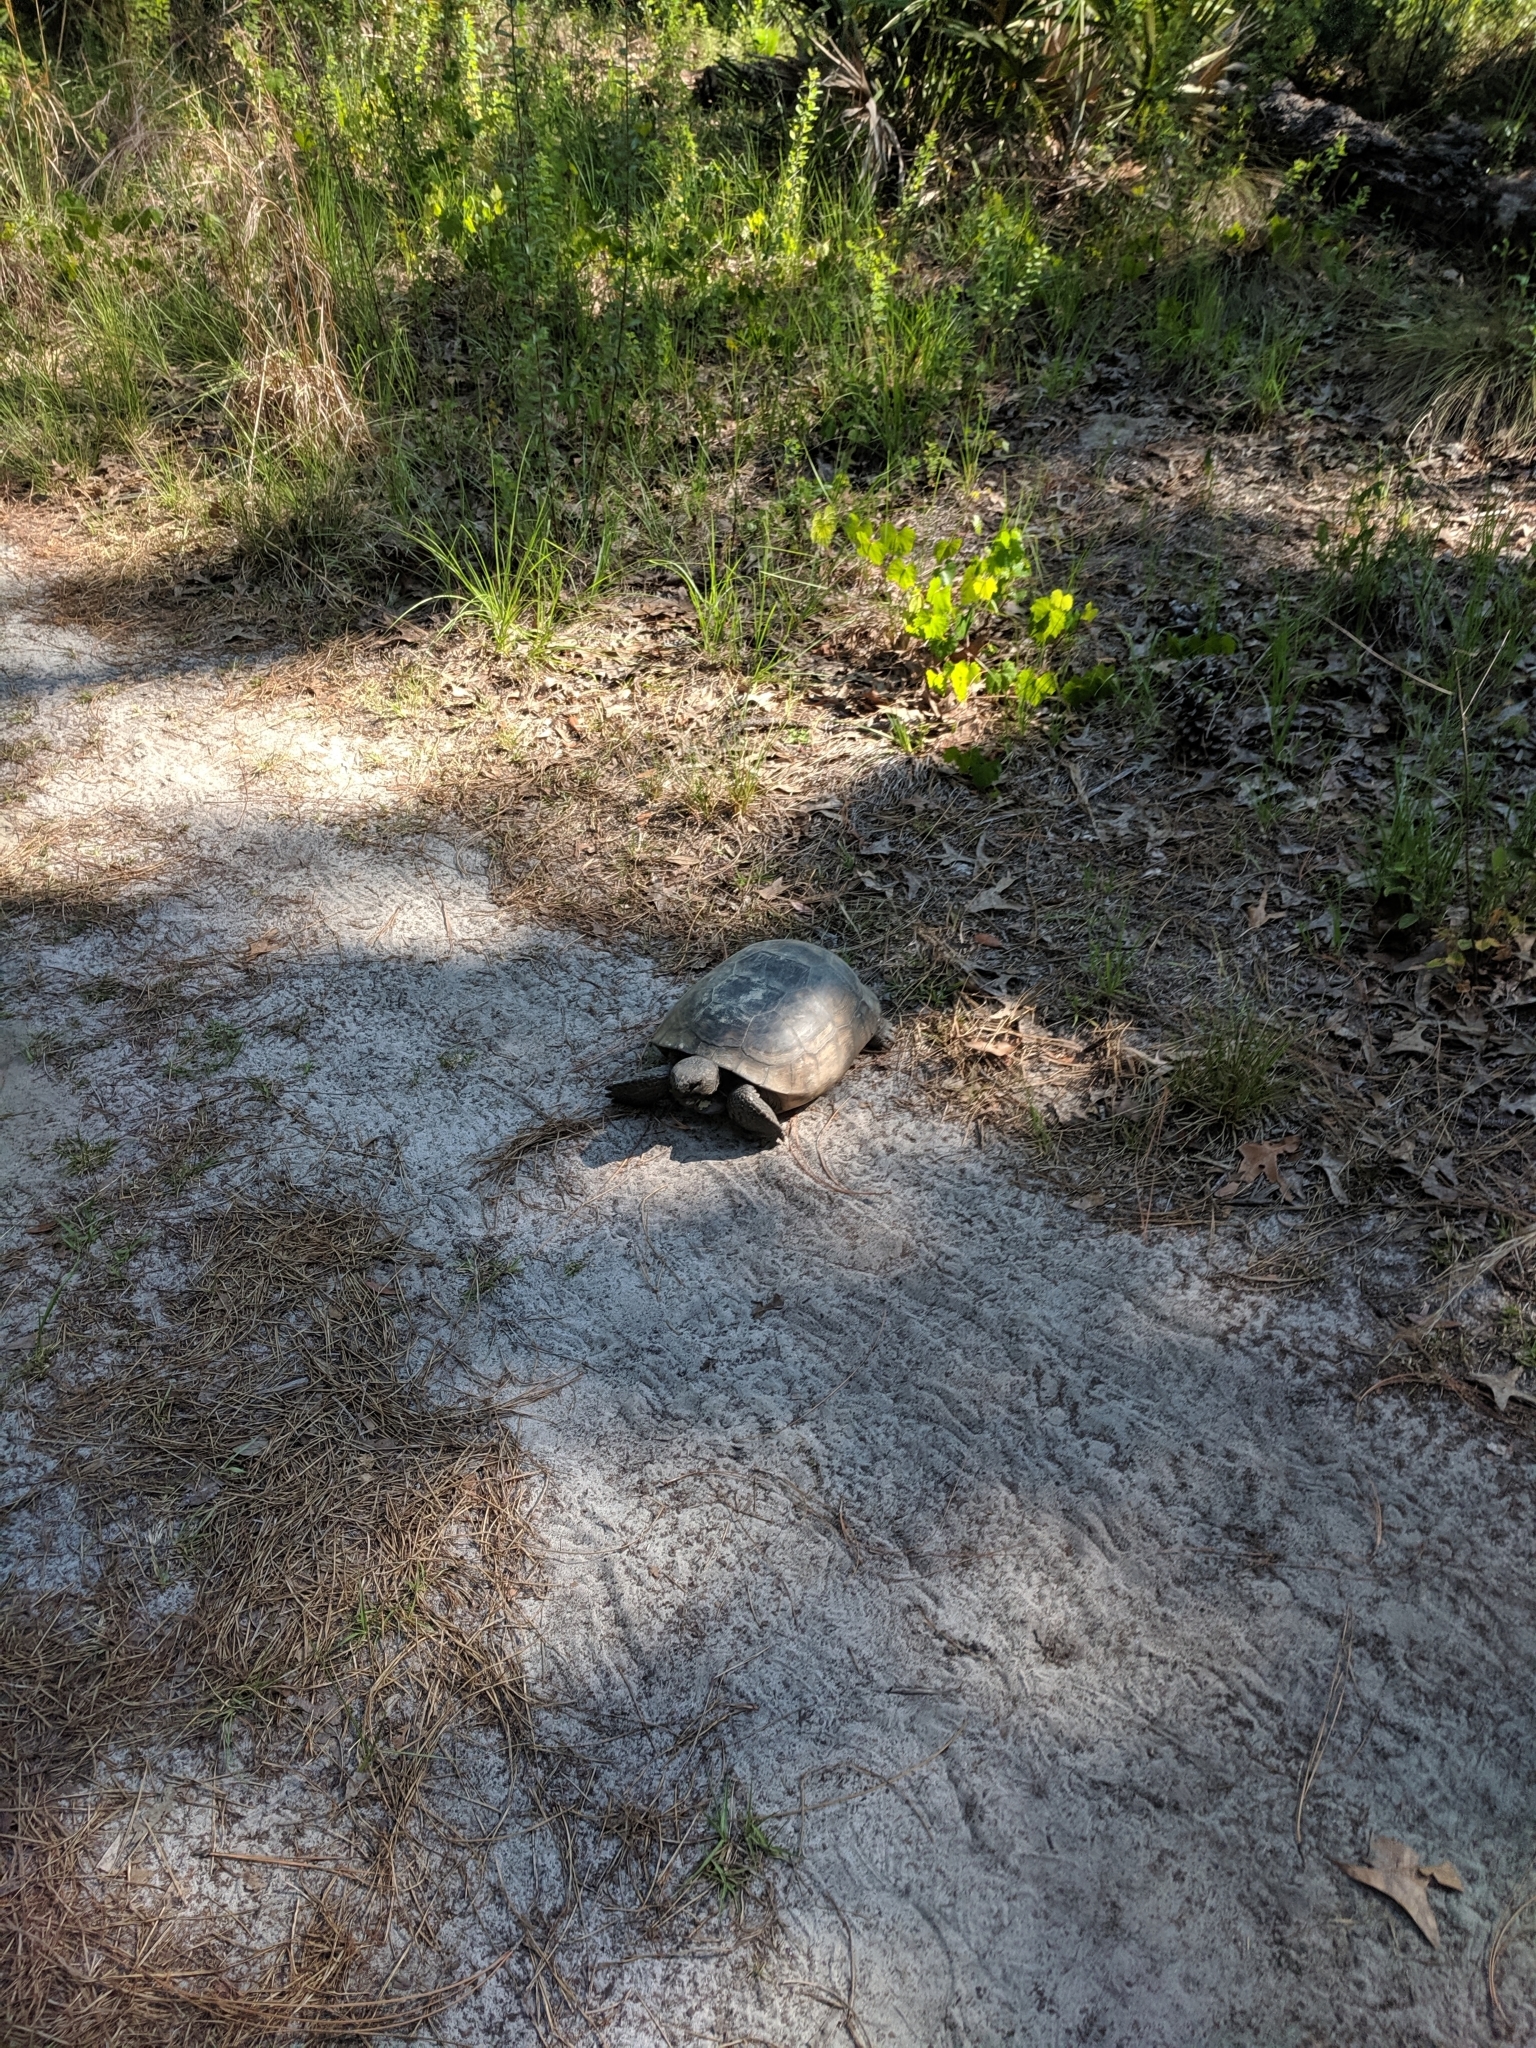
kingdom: Animalia
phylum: Chordata
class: Testudines
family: Testudinidae
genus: Gopherus
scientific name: Gopherus polyphemus
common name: Florida gopher tortoise
